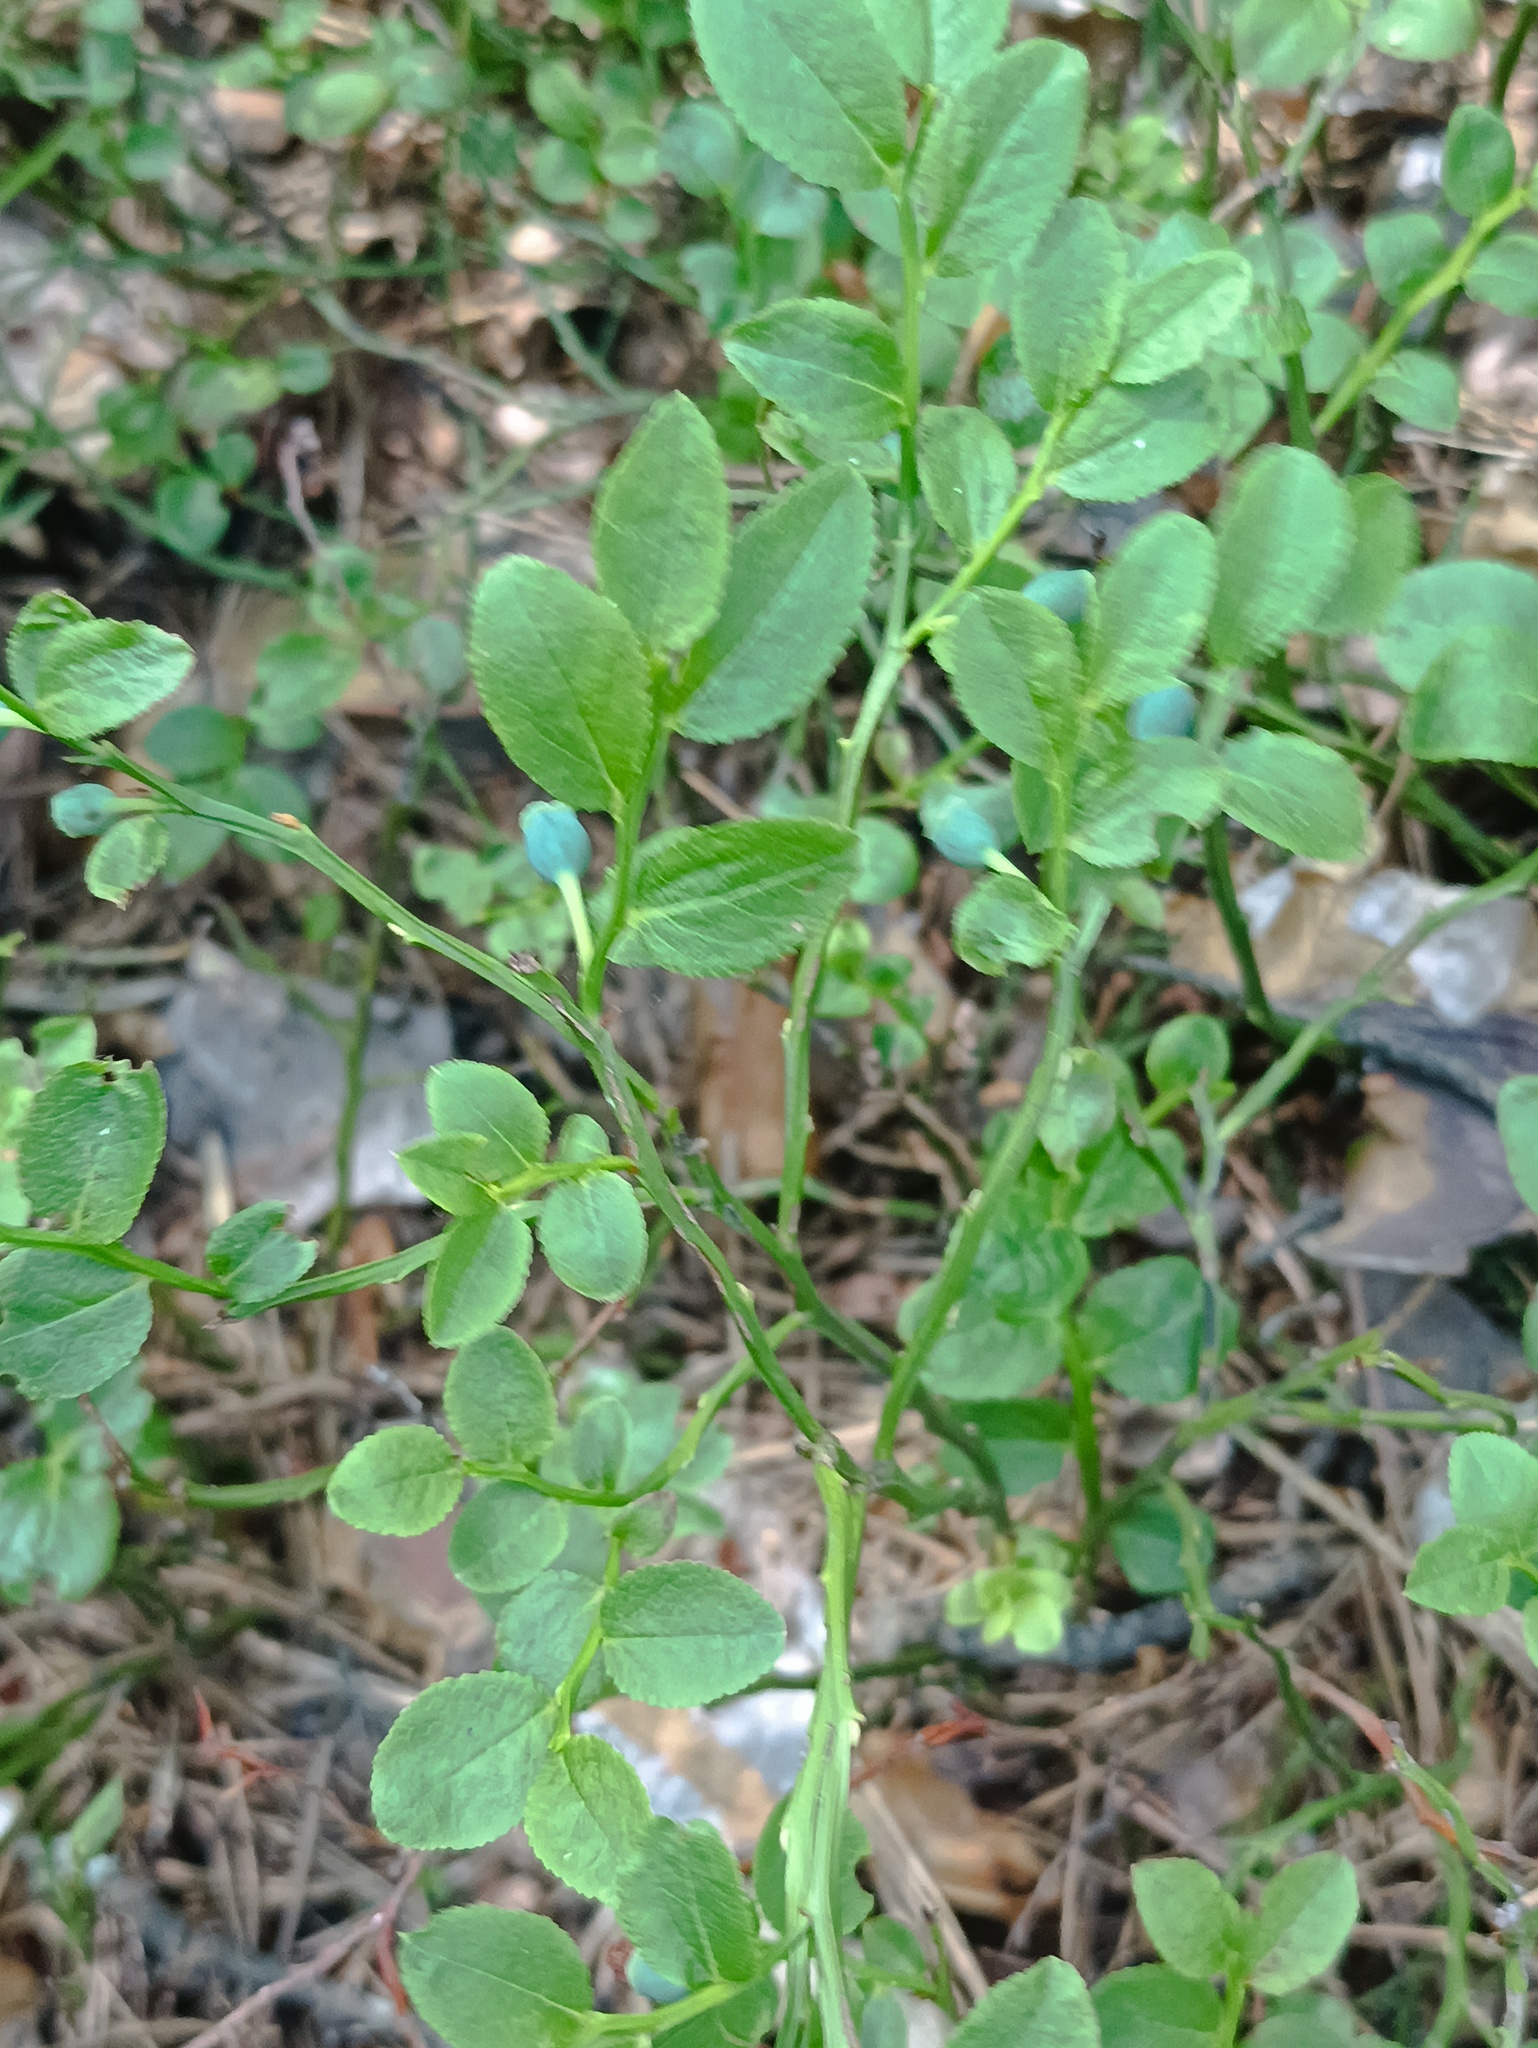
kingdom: Plantae
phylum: Tracheophyta
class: Magnoliopsida
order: Ericales
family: Ericaceae
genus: Vaccinium
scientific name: Vaccinium myrtillus
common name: Bilberry
